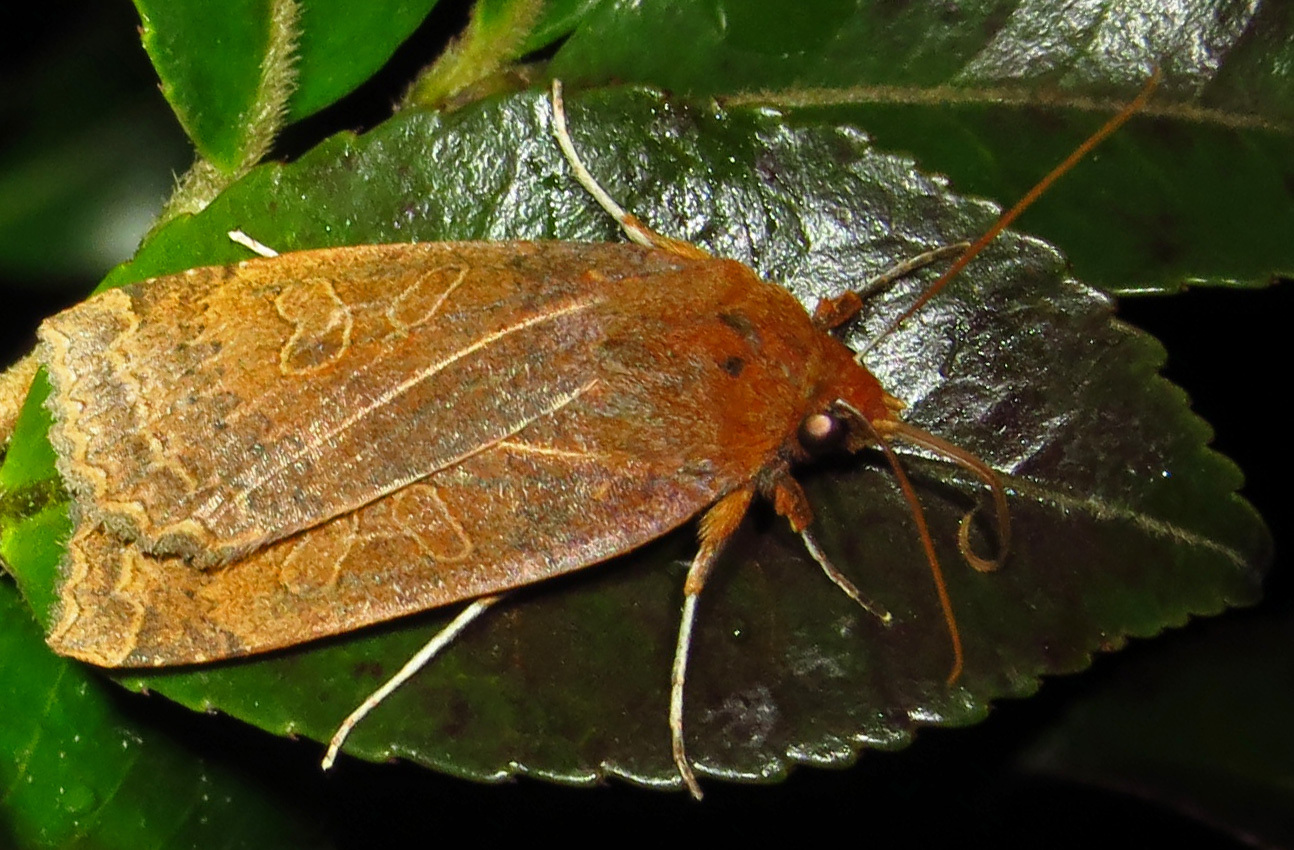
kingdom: Animalia
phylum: Arthropoda
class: Insecta
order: Lepidoptera
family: Noctuidae
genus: Metaxaglaea
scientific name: Metaxaglaea viatica
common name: Roadside sallow
